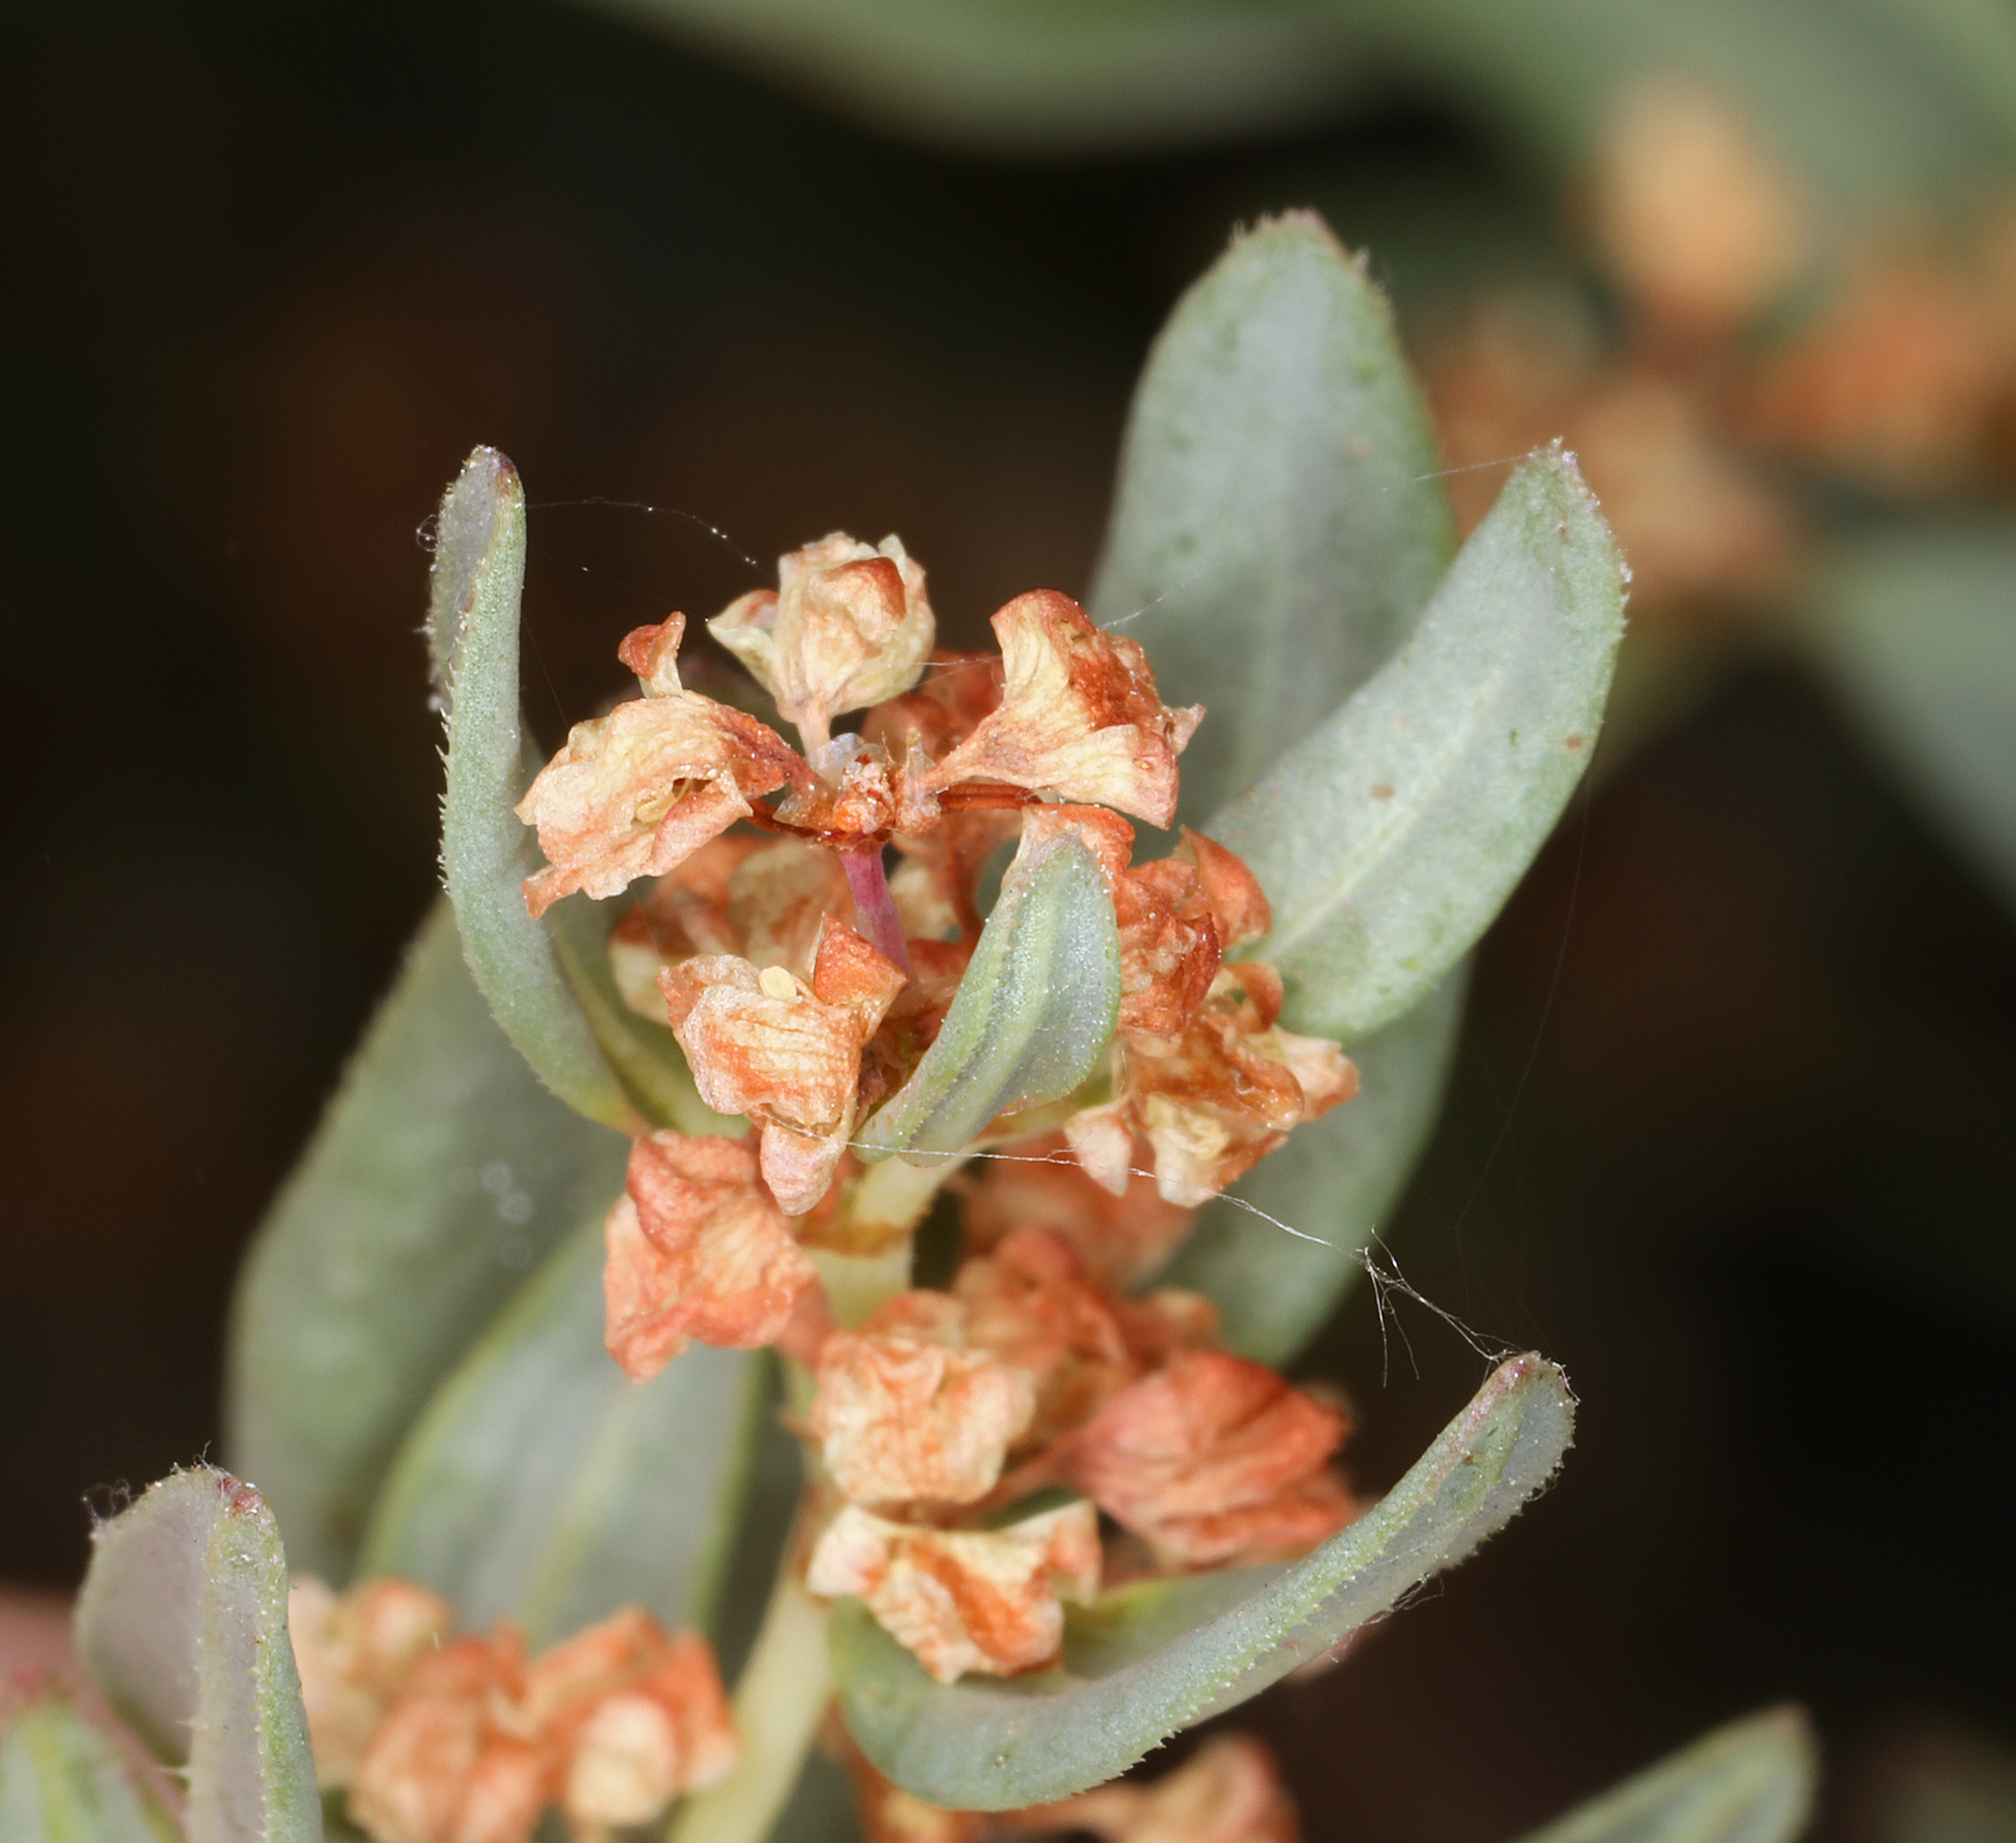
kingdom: Plantae
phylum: Tracheophyta
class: Magnoliopsida
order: Caryophyllales
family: Polygonaceae
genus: Koenigia
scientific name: Koenigia davisiae
